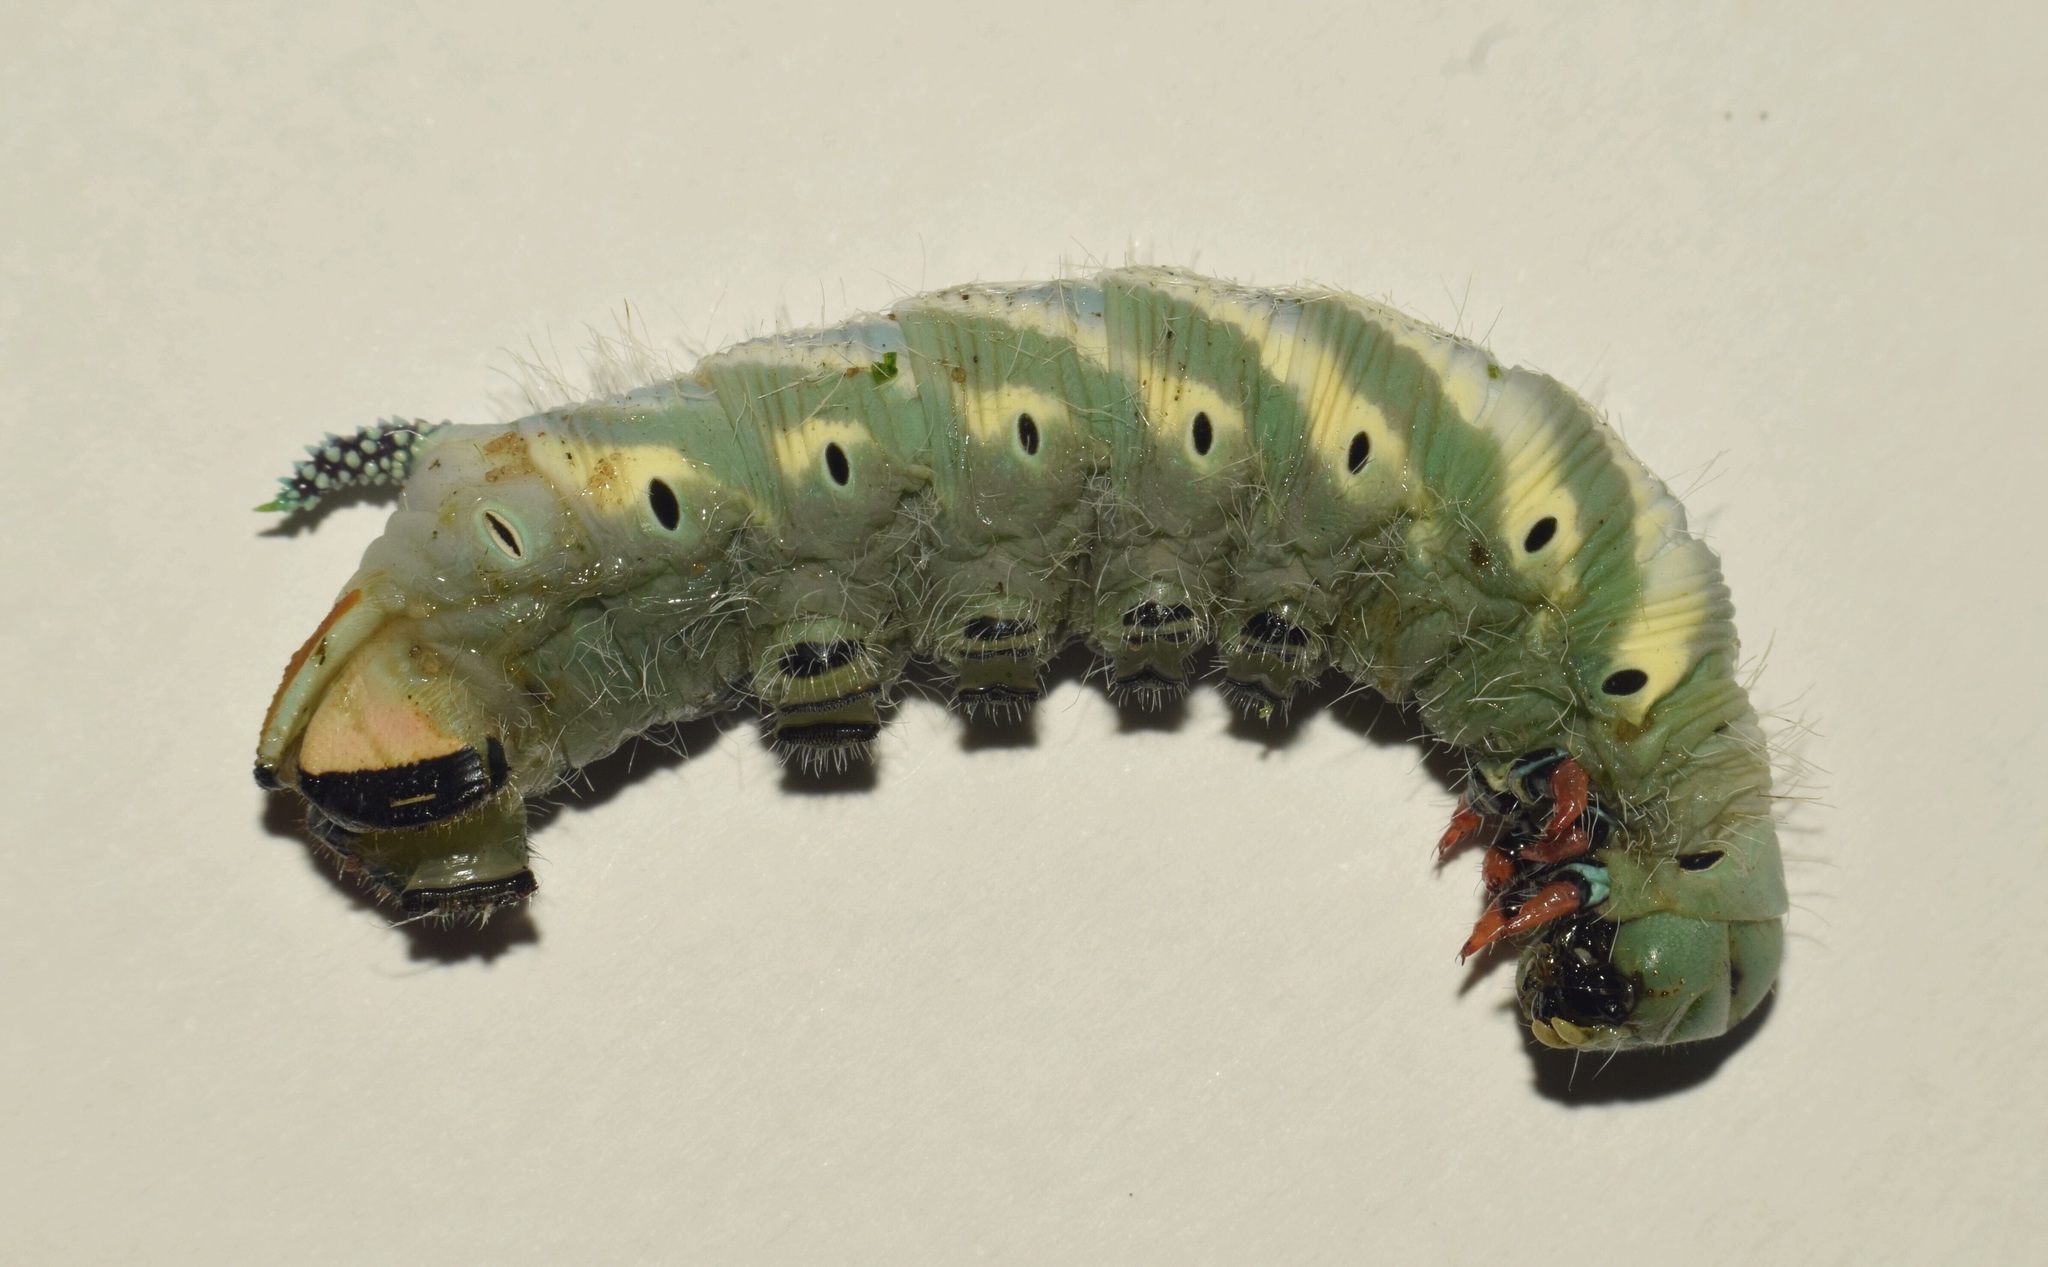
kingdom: Animalia
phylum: Arthropoda
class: Insecta
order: Lepidoptera
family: Sphingidae
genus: Xanthopan
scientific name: Xanthopan morganii
